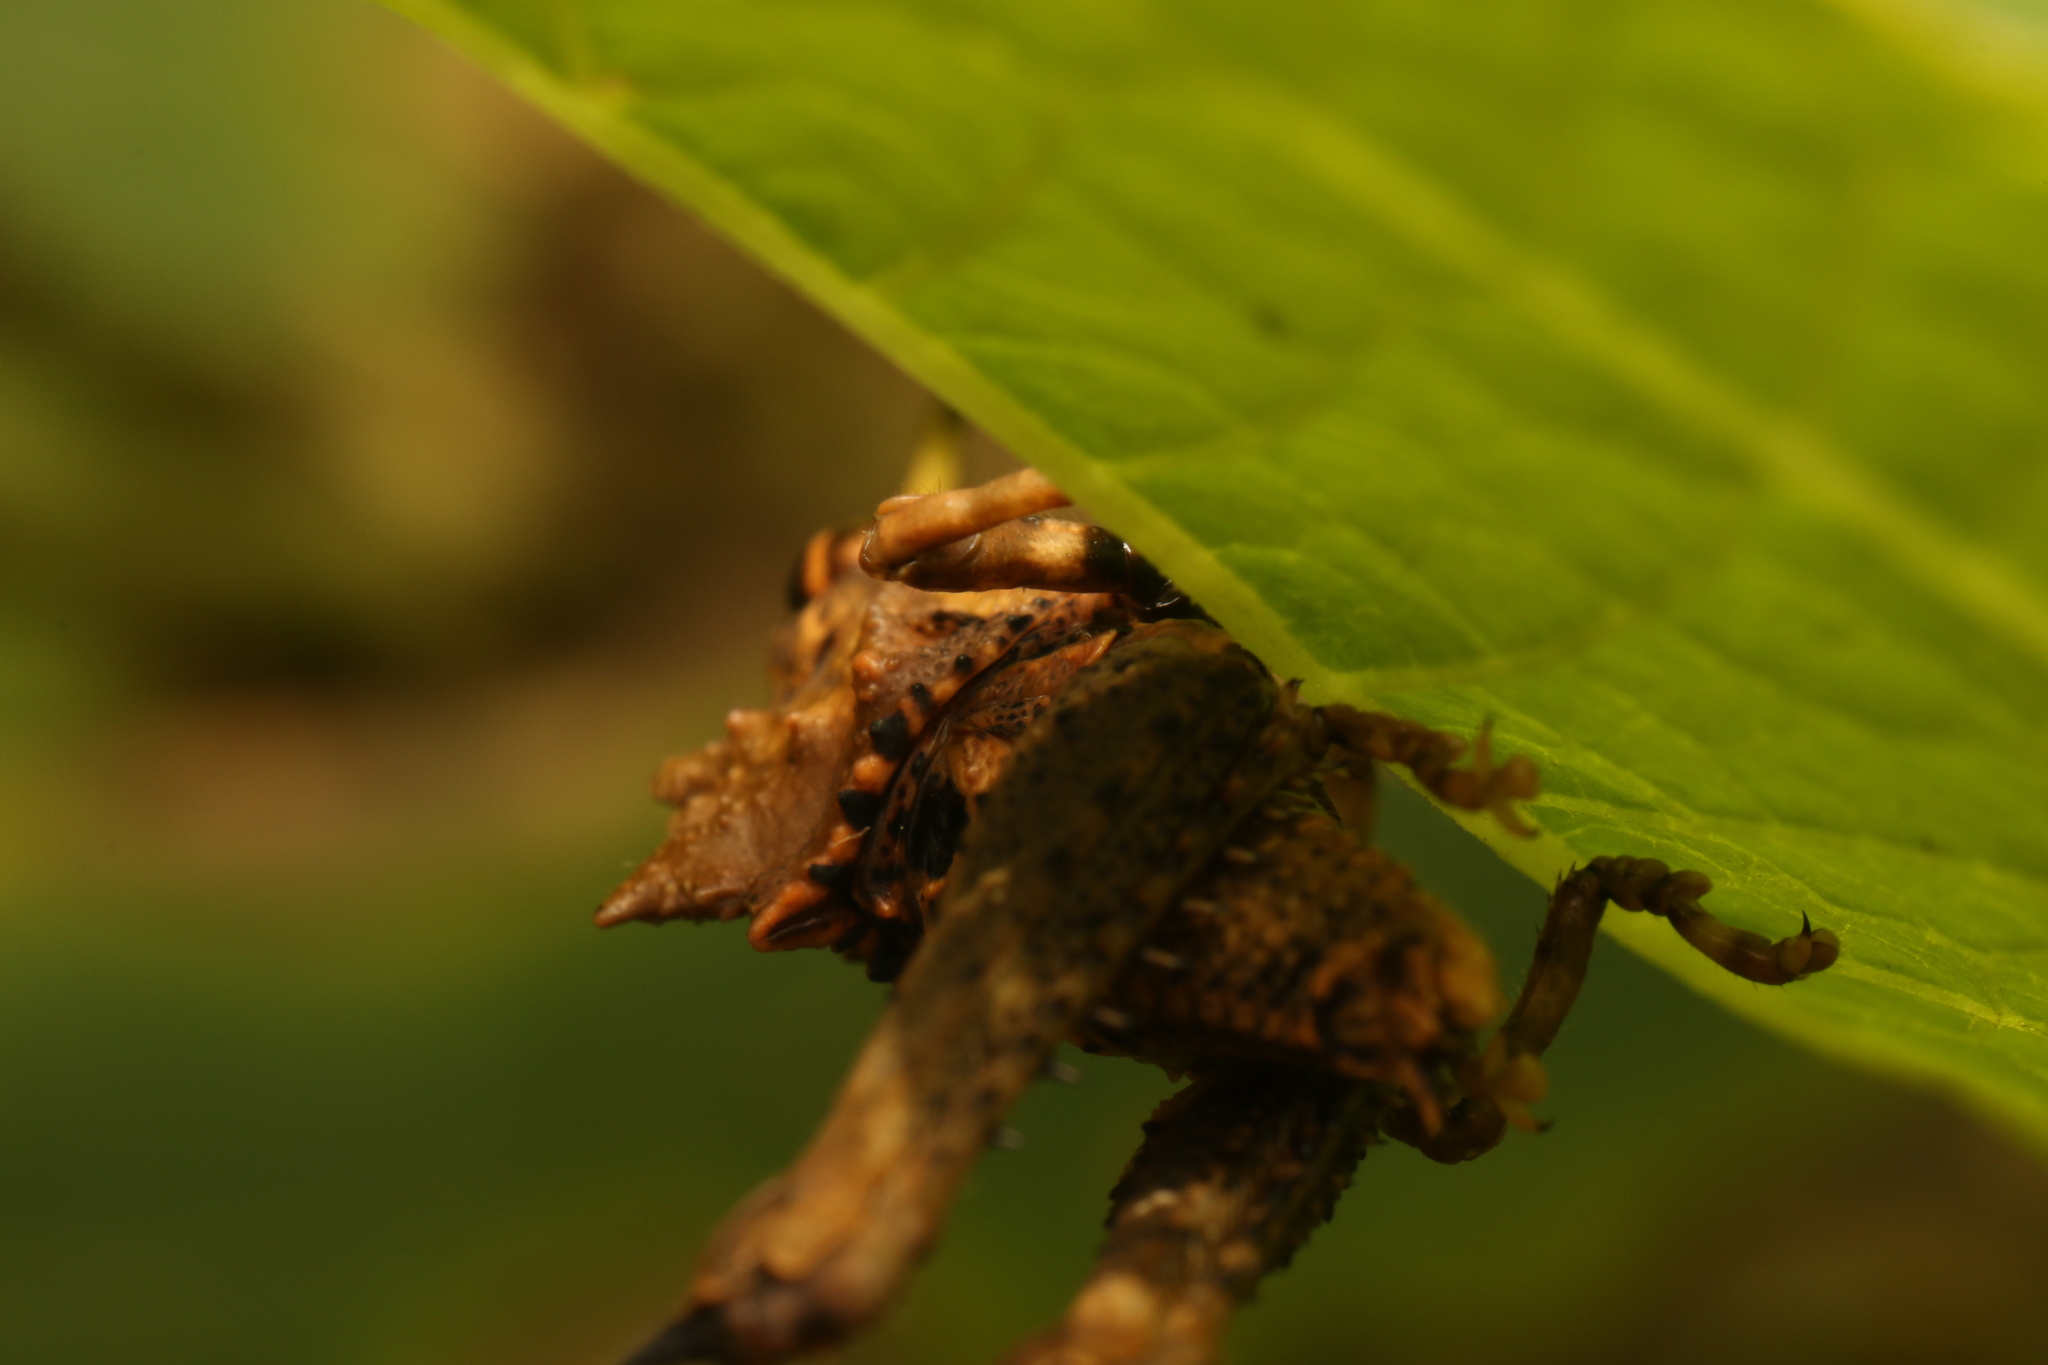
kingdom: Animalia
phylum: Arthropoda
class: Insecta
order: Orthoptera
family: Acrididae
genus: Pycnosarcus
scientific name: Pycnosarcus atavus
